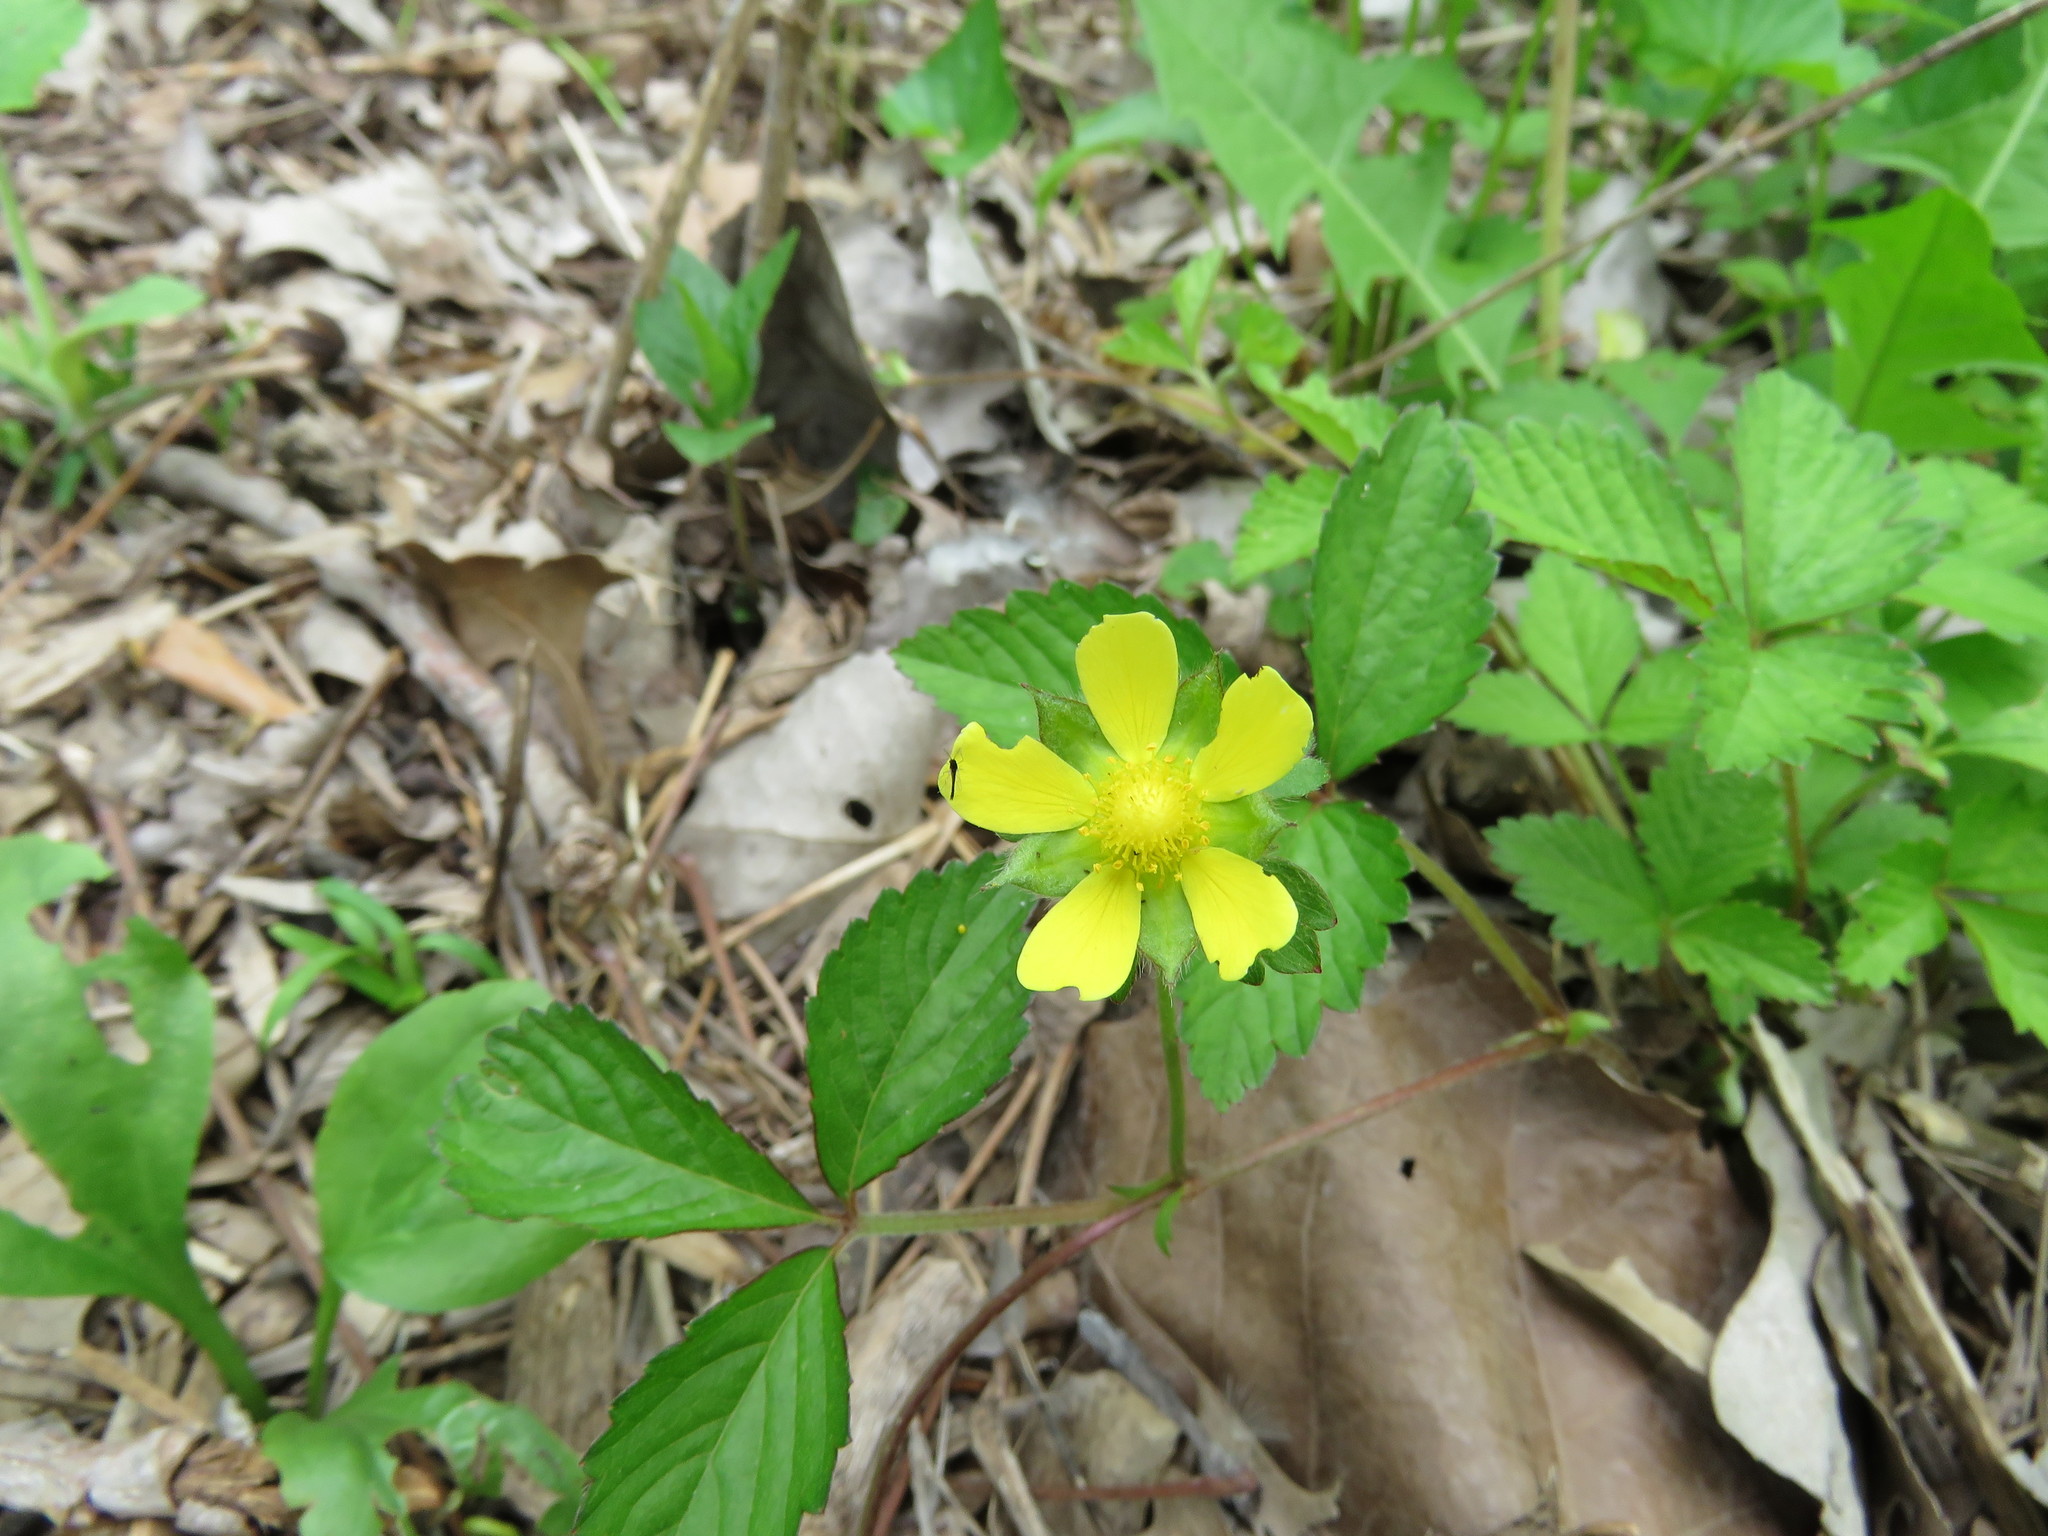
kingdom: Plantae
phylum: Tracheophyta
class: Magnoliopsida
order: Rosales
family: Rosaceae
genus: Potentilla
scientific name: Potentilla indica
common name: Yellow-flowered strawberry
